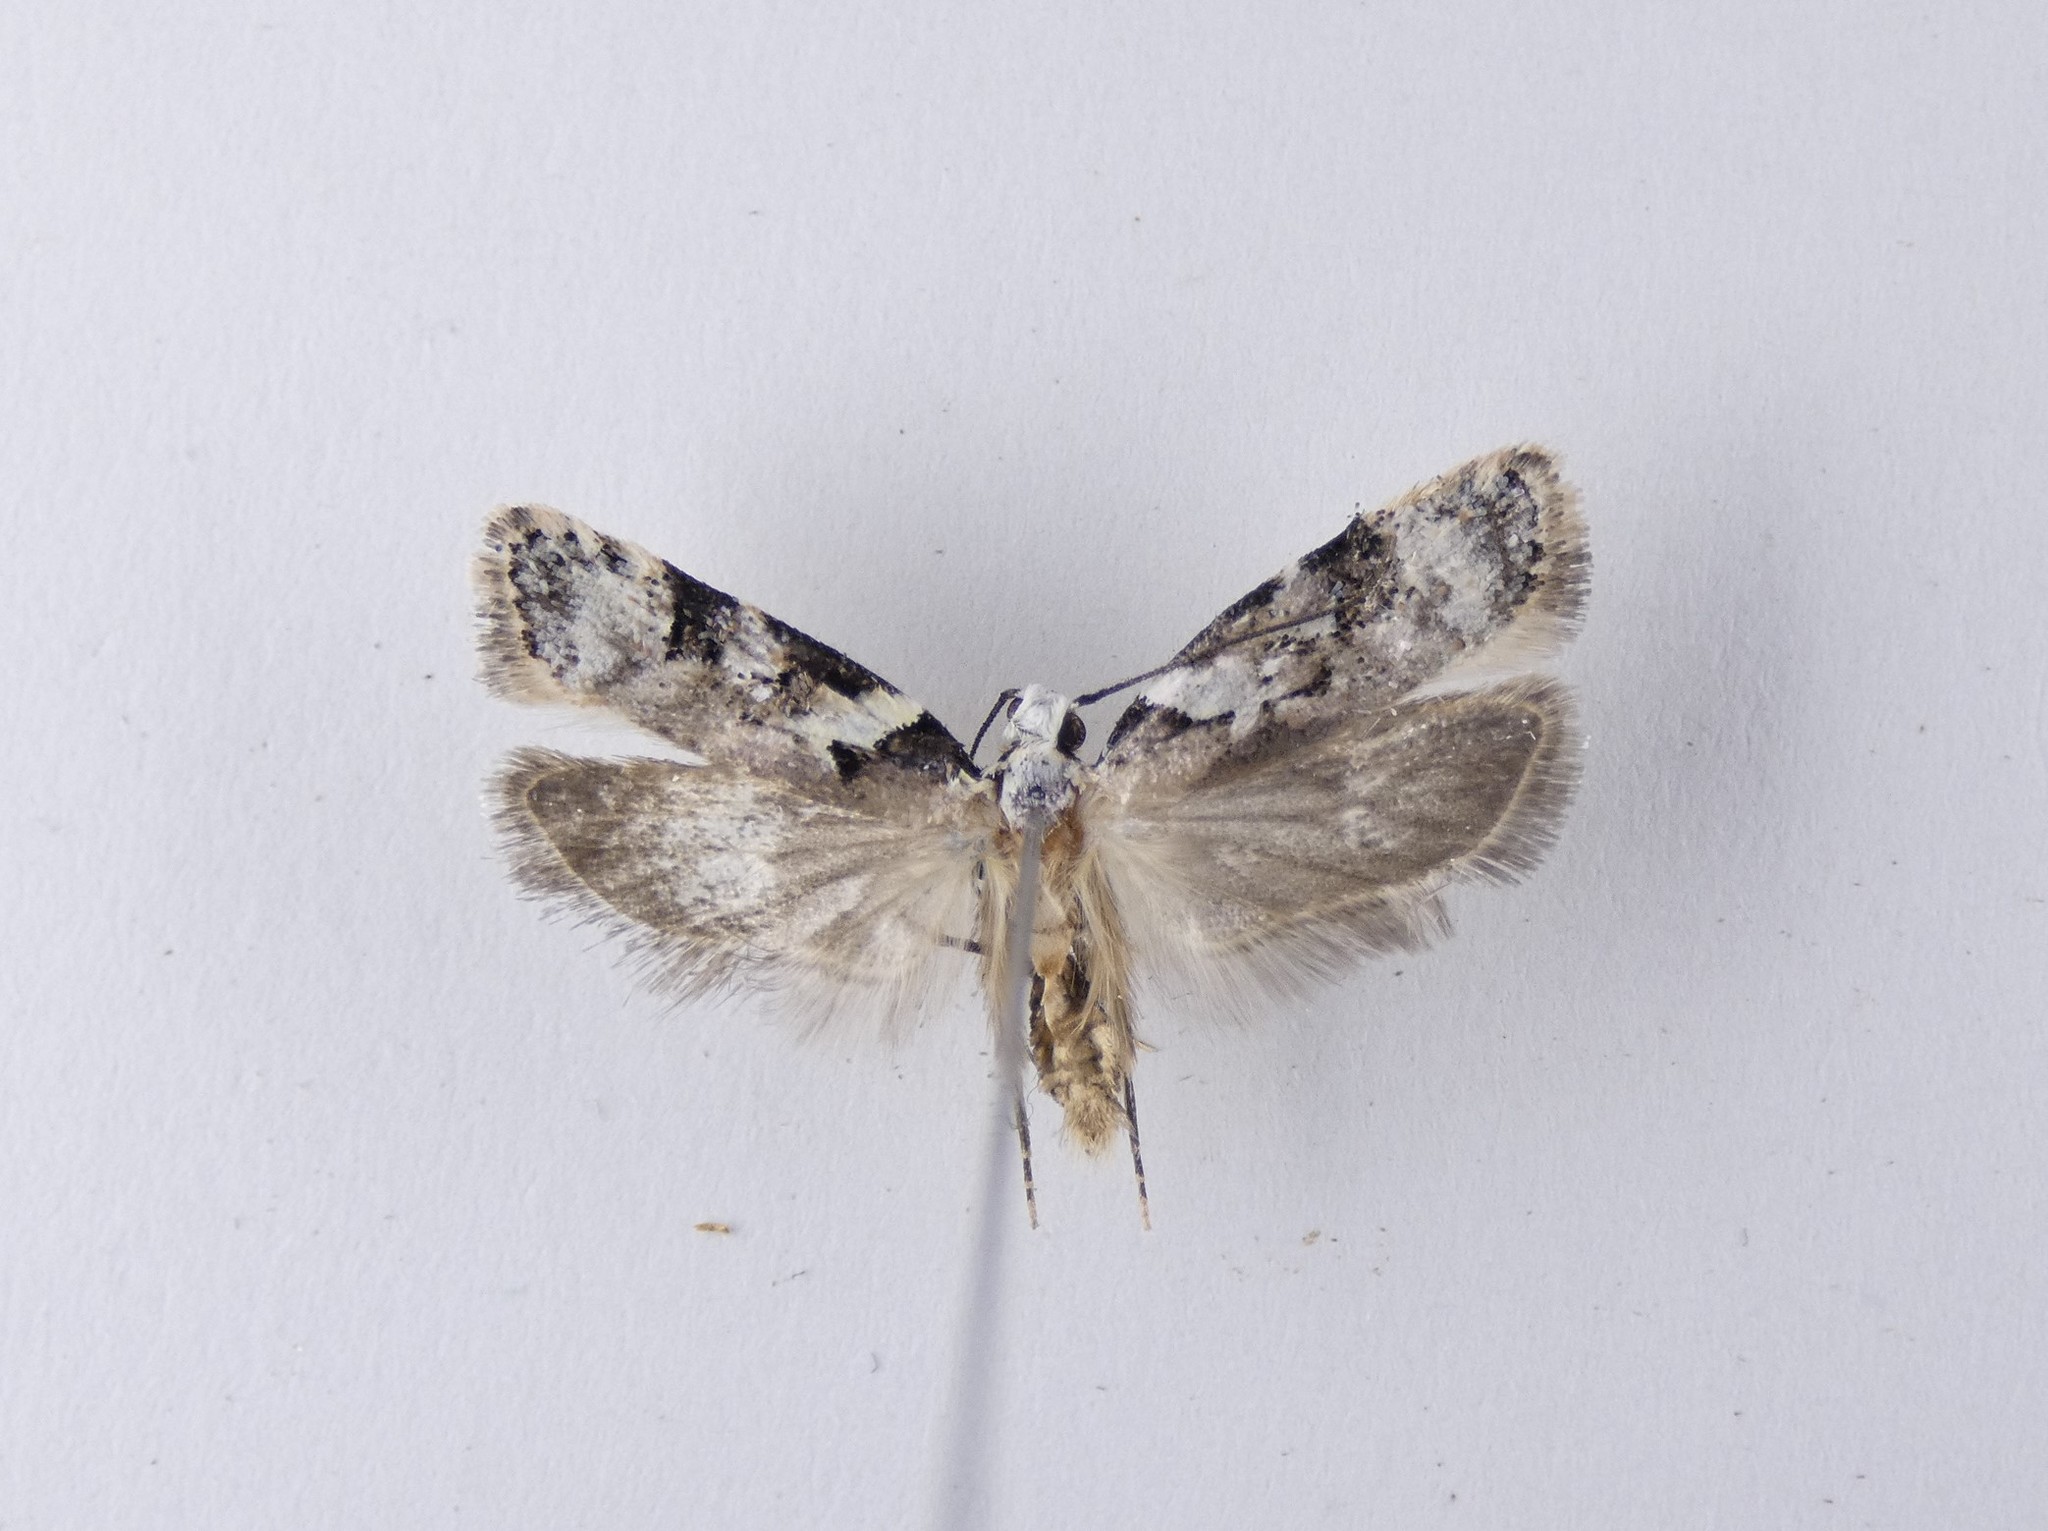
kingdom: Animalia
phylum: Arthropoda
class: Insecta
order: Lepidoptera
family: Oecophoridae
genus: Izatha
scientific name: Izatha epiphanes
